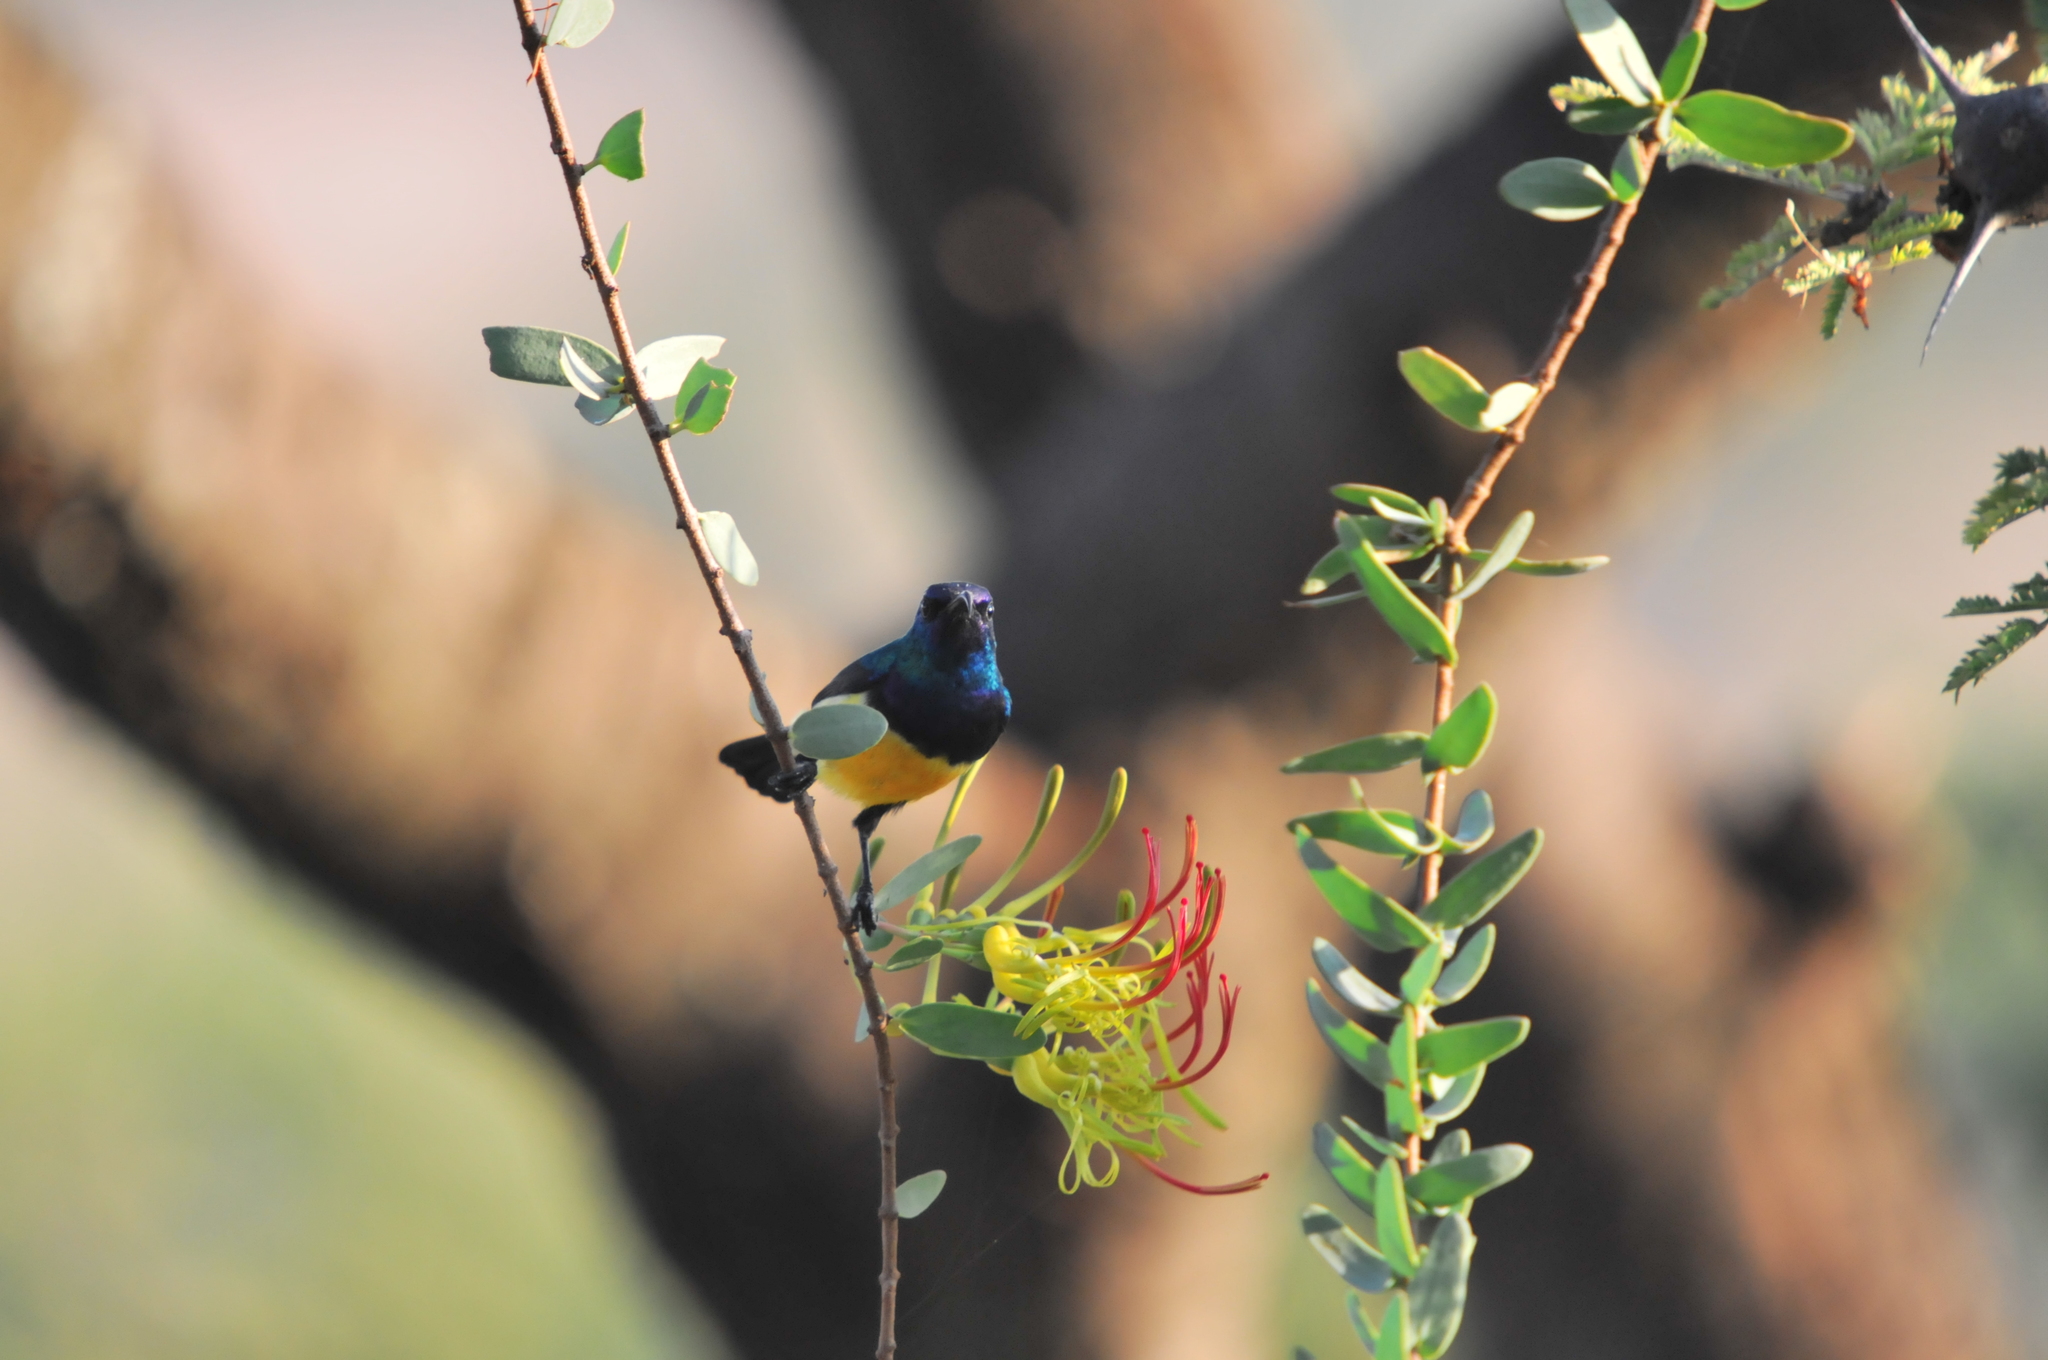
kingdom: Animalia
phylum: Chordata
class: Aves
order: Passeriformes
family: Nectariniidae
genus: Cinnyris
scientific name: Cinnyris venustus
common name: Variable sunbird
